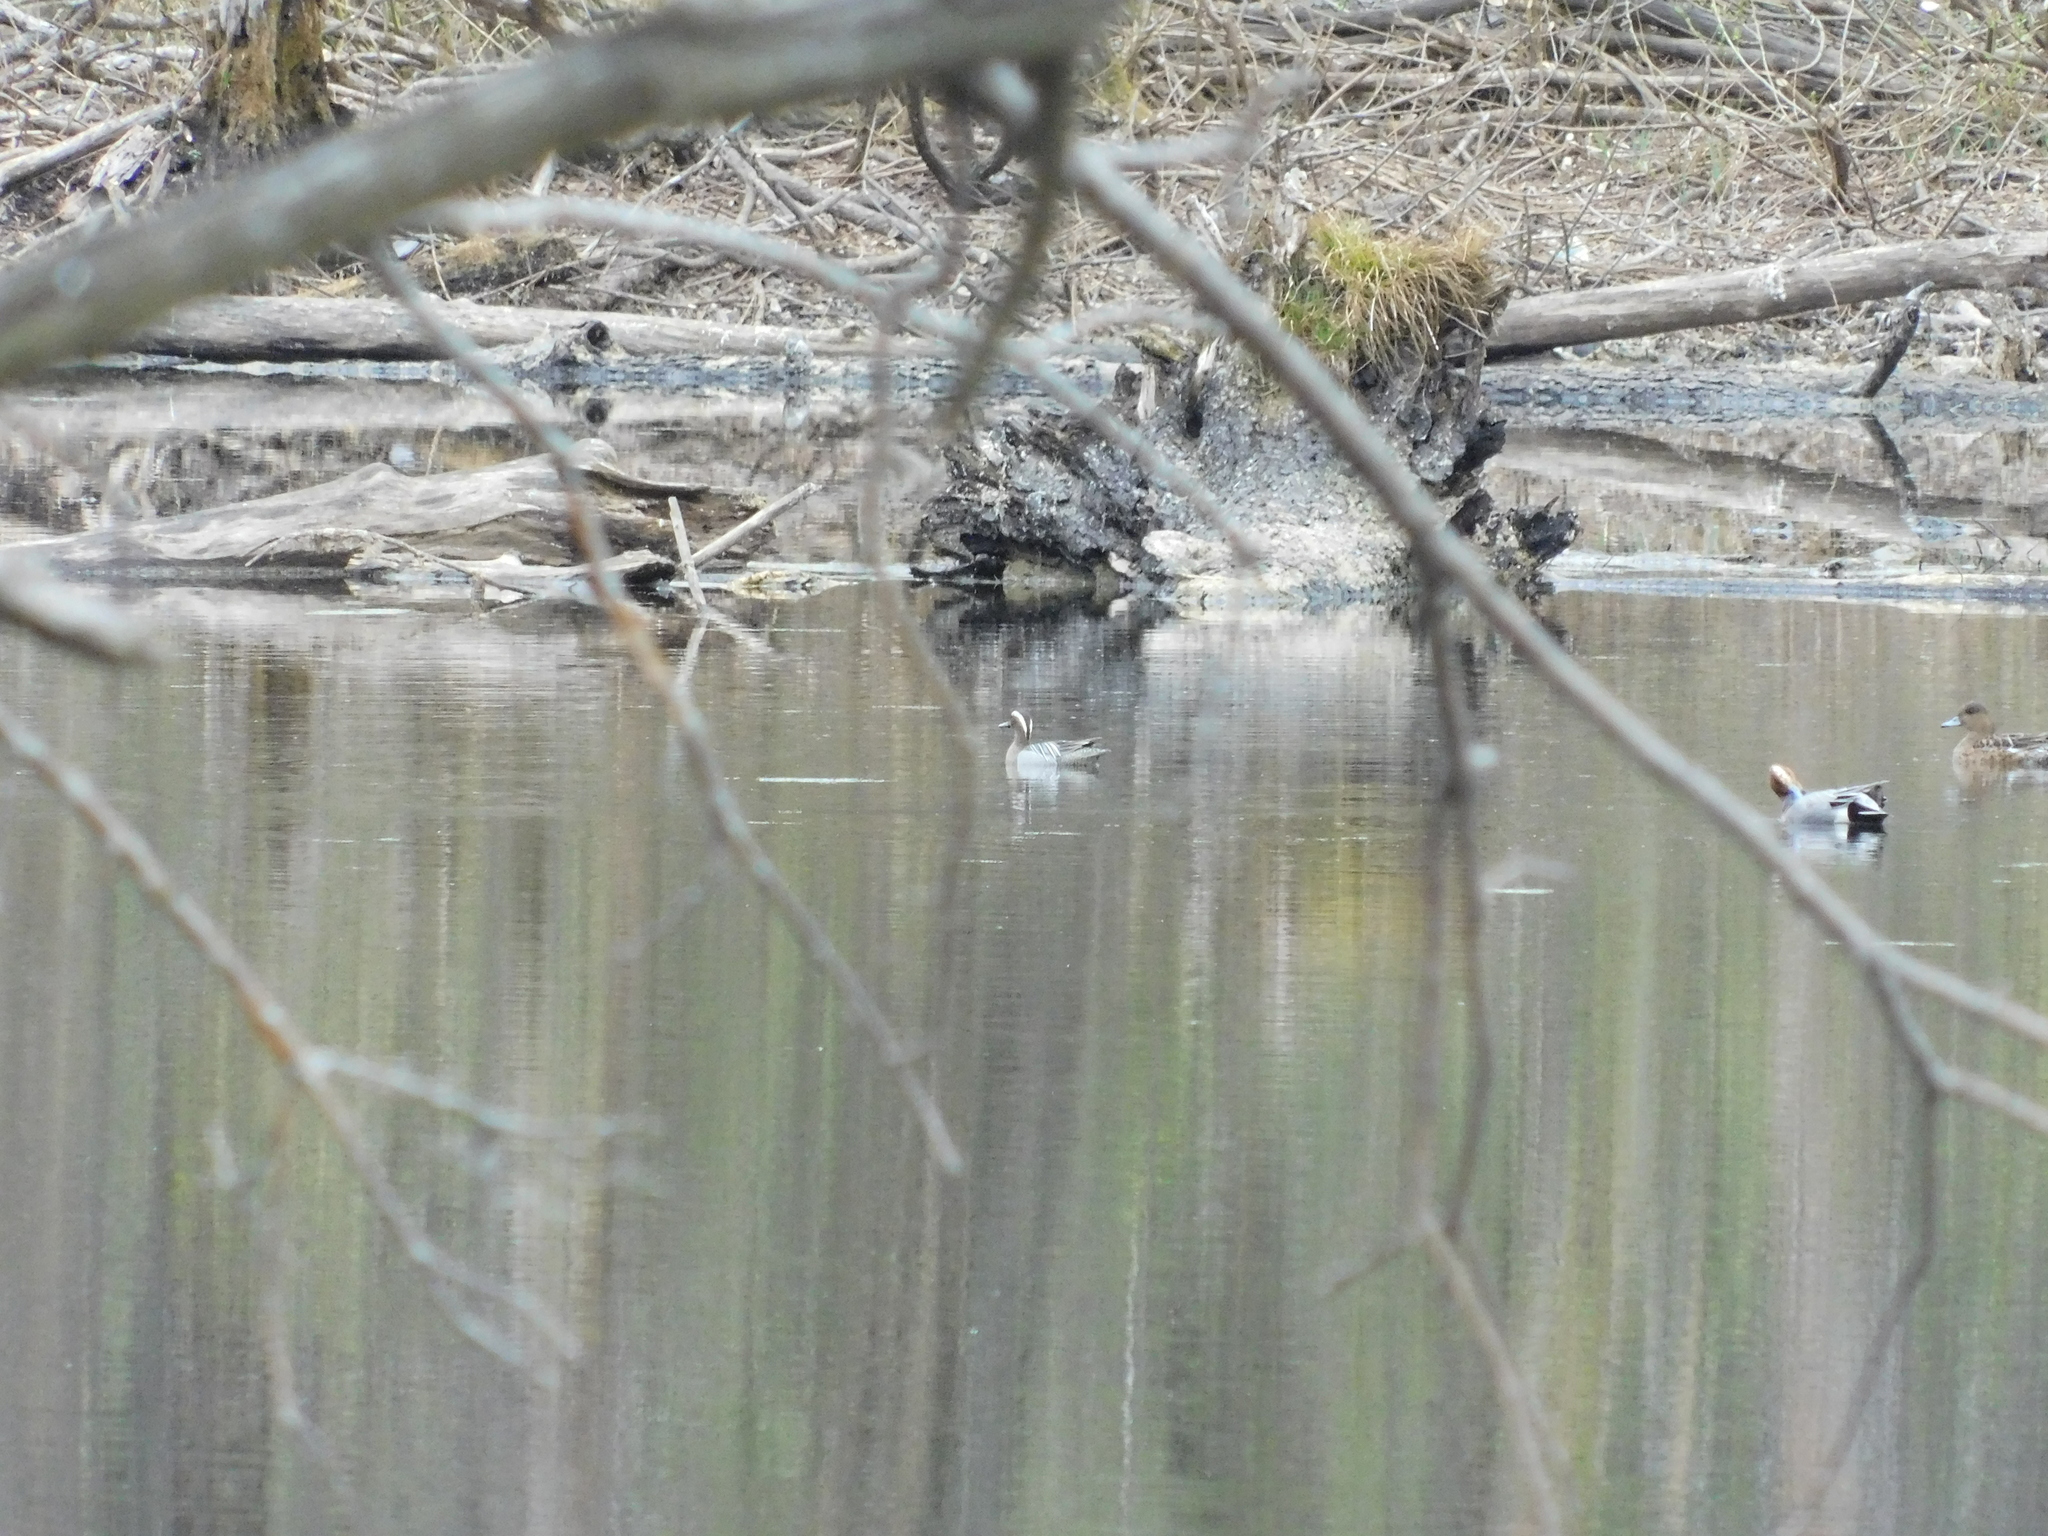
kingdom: Animalia
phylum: Chordata
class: Aves
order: Anseriformes
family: Anatidae
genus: Spatula
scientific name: Spatula querquedula
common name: Garganey
